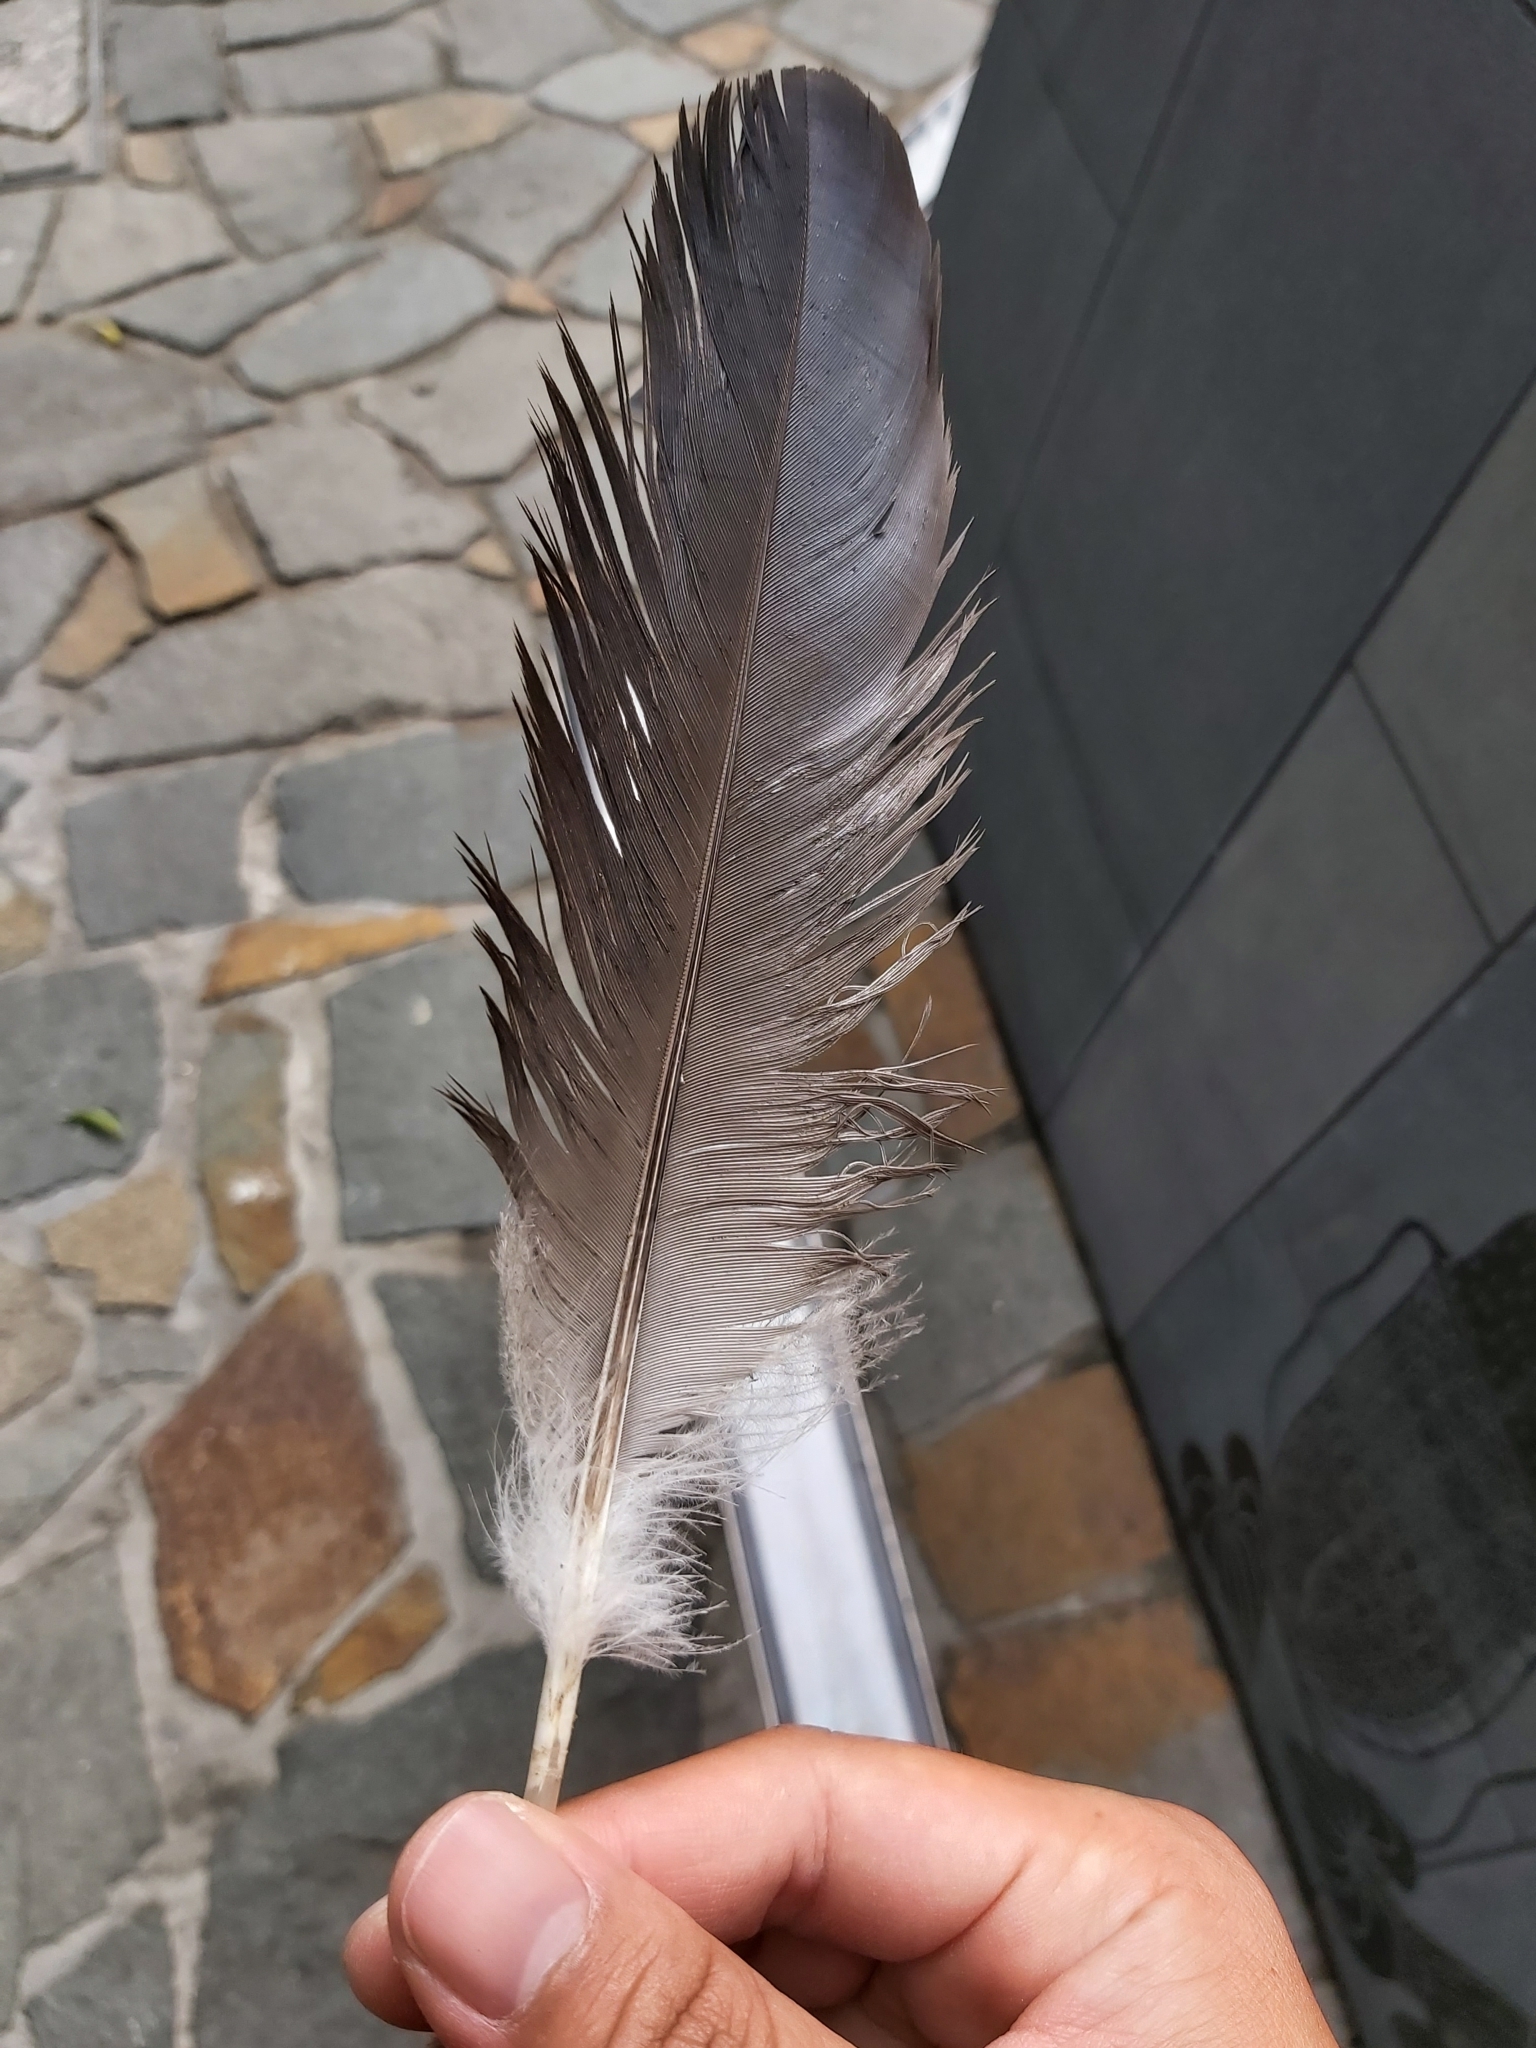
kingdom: Animalia
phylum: Chordata
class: Aves
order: Pelecaniformes
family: Threskiornithidae
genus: Threskiornis
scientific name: Threskiornis spinicollis
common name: Straw-necked ibis
